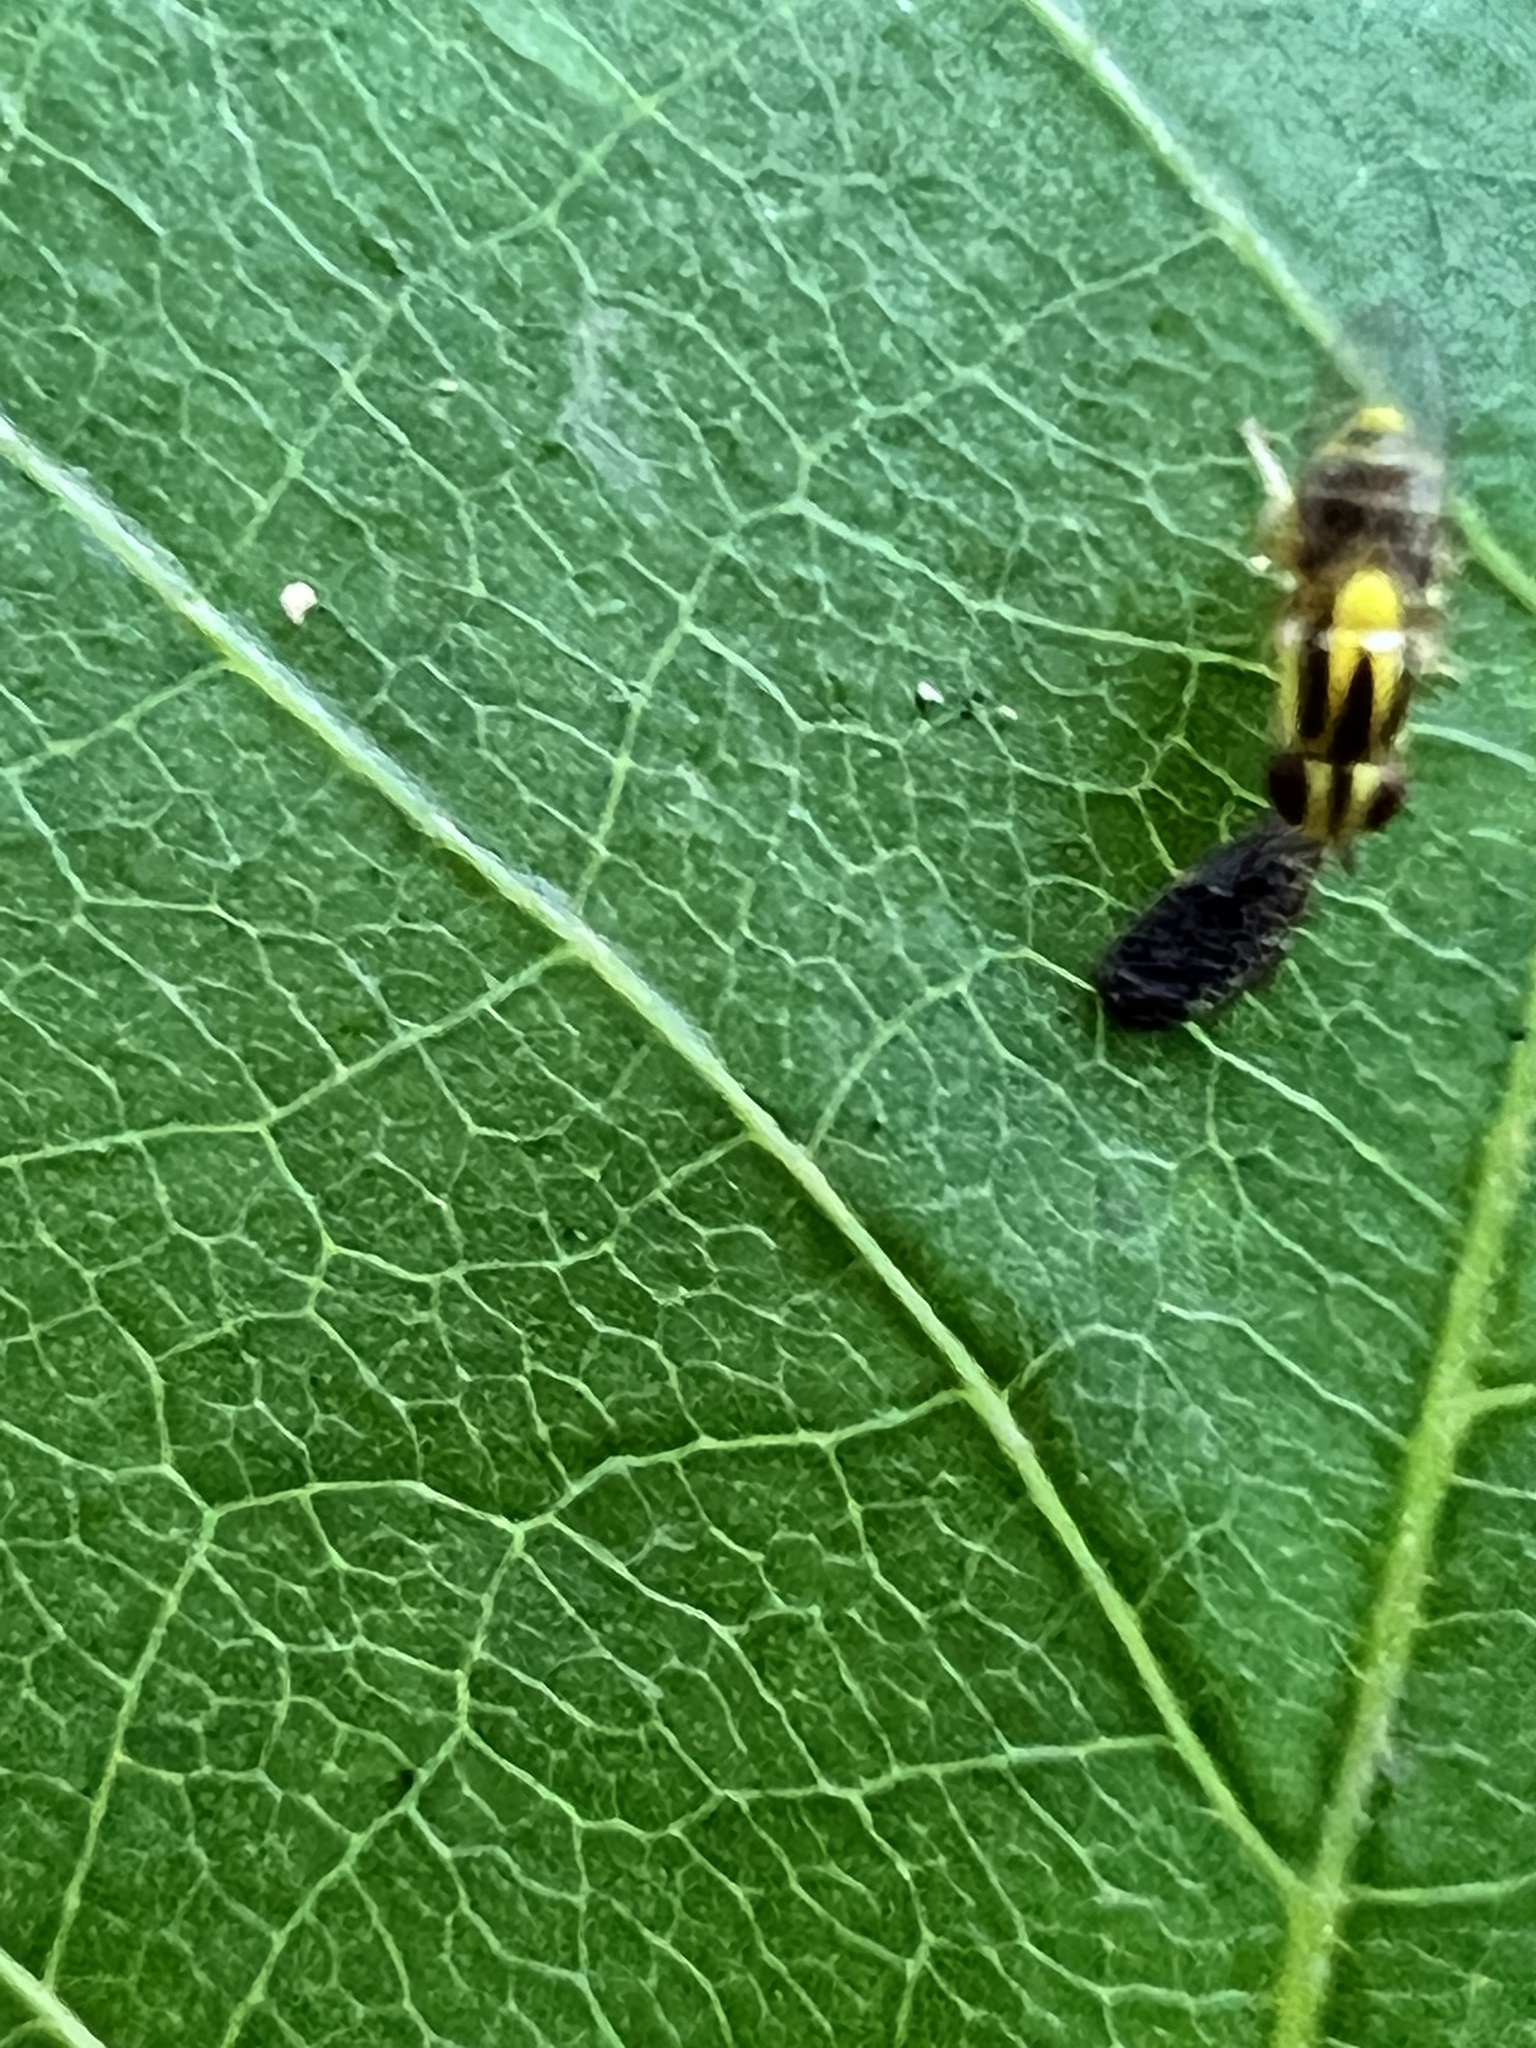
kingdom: Animalia
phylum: Arthropoda
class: Insecta
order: Diptera
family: Chloropidae
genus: Thaumatomyia
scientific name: Thaumatomyia glabra
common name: Chloropid fly
